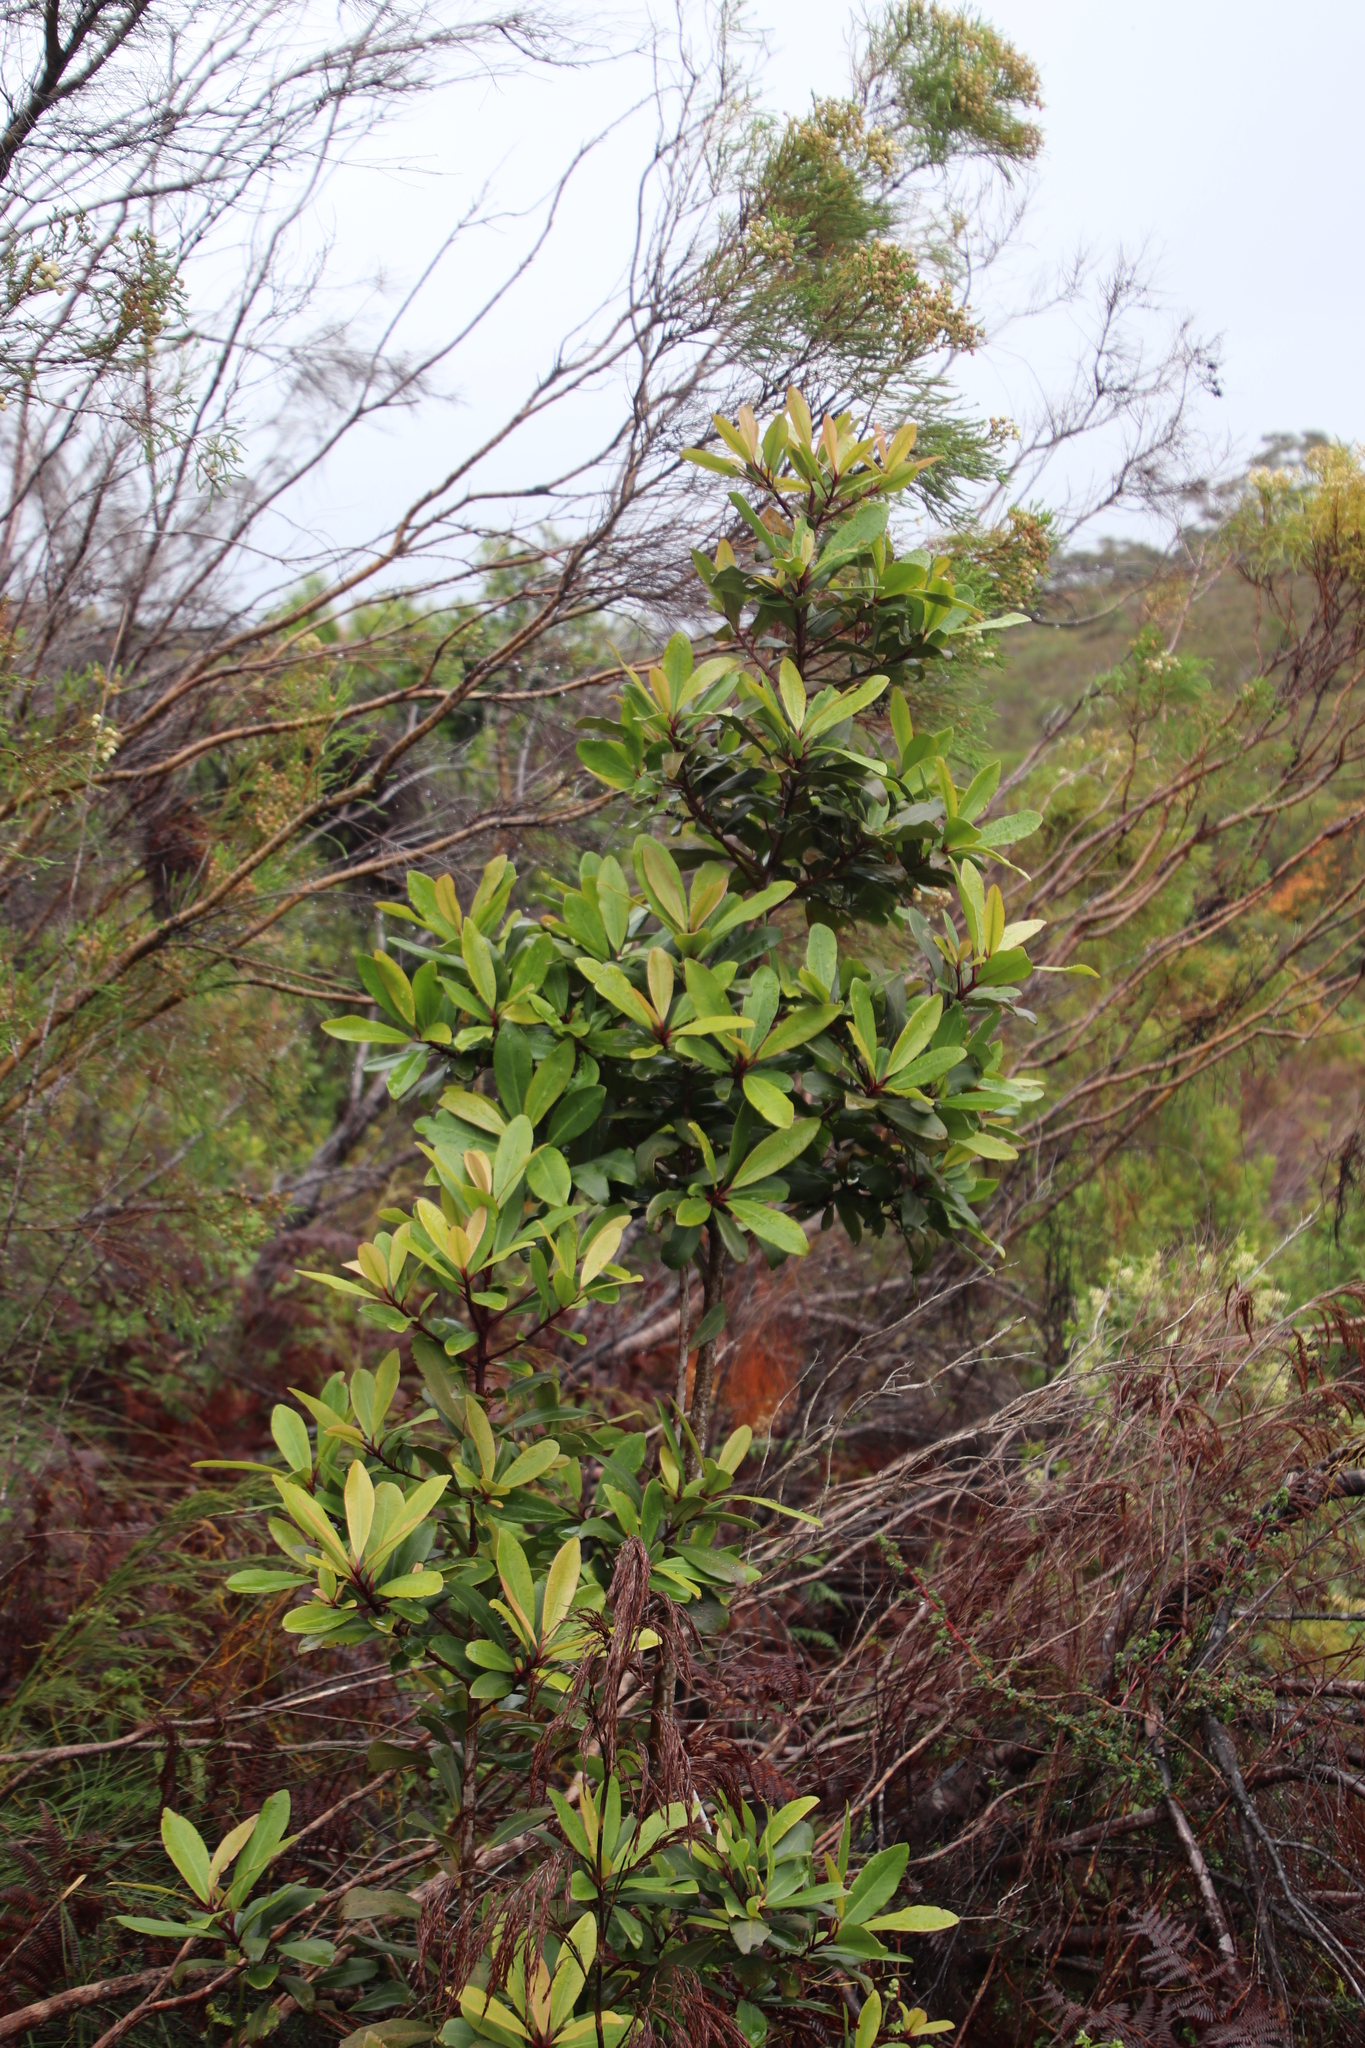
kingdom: Plantae
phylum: Tracheophyta
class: Magnoliopsida
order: Ericales
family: Primulaceae
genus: Myrsine
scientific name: Myrsine melanophloeos
